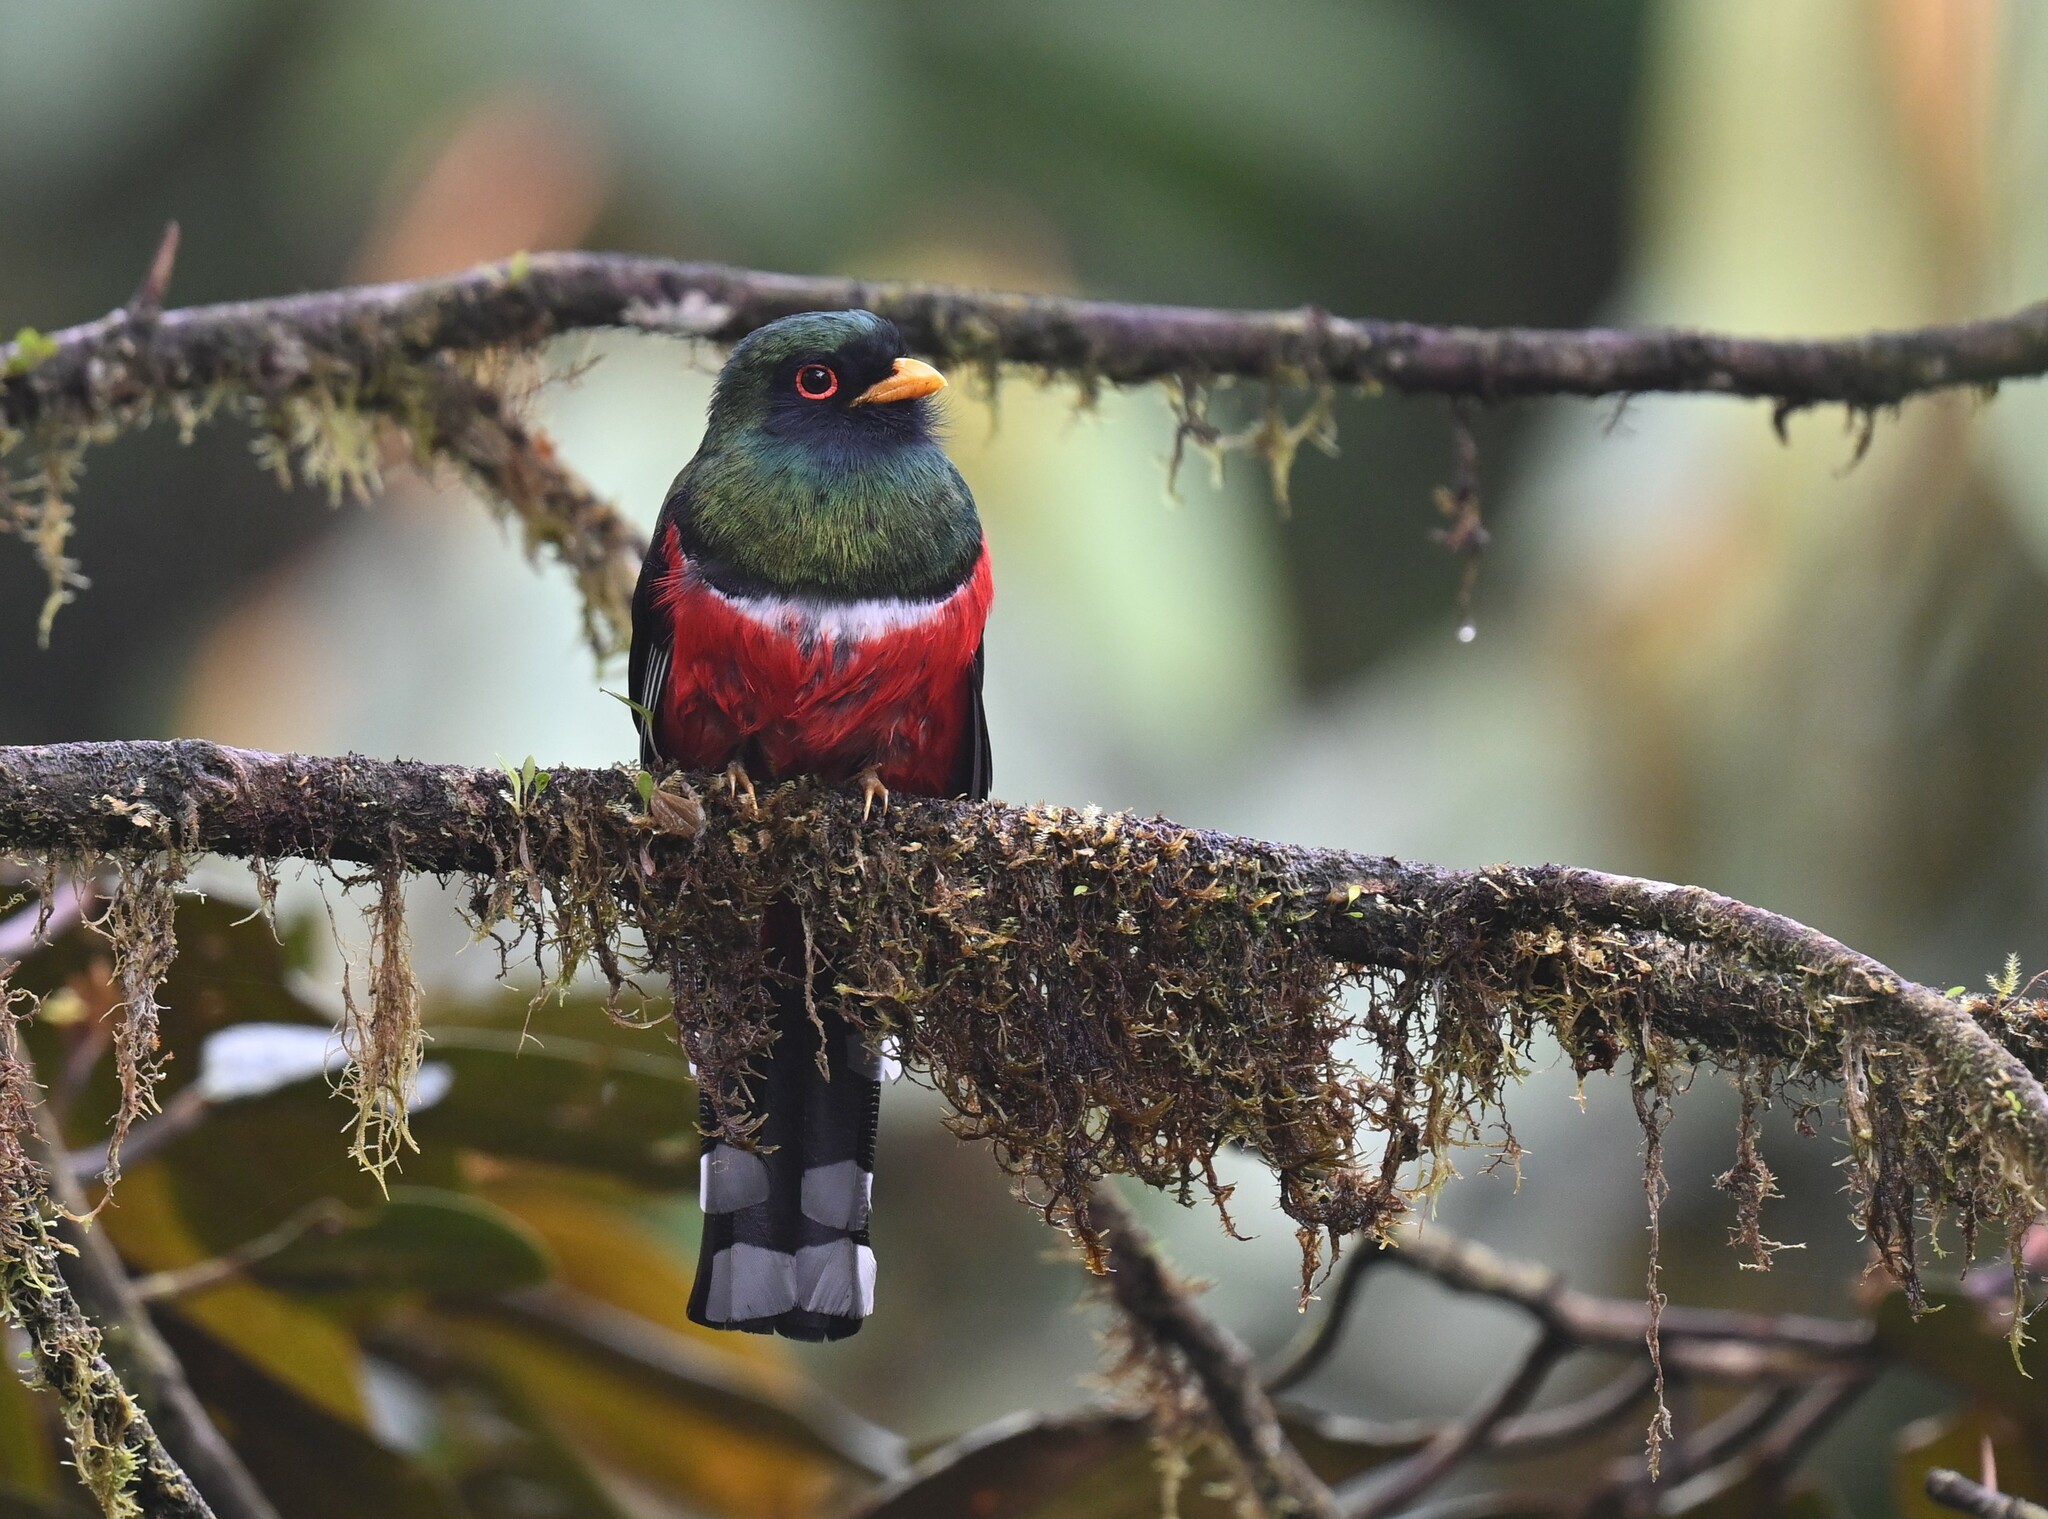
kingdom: Animalia
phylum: Chordata
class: Aves
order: Trogoniformes
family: Trogonidae
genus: Trogon
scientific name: Trogon personatus
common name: Masked trogon
